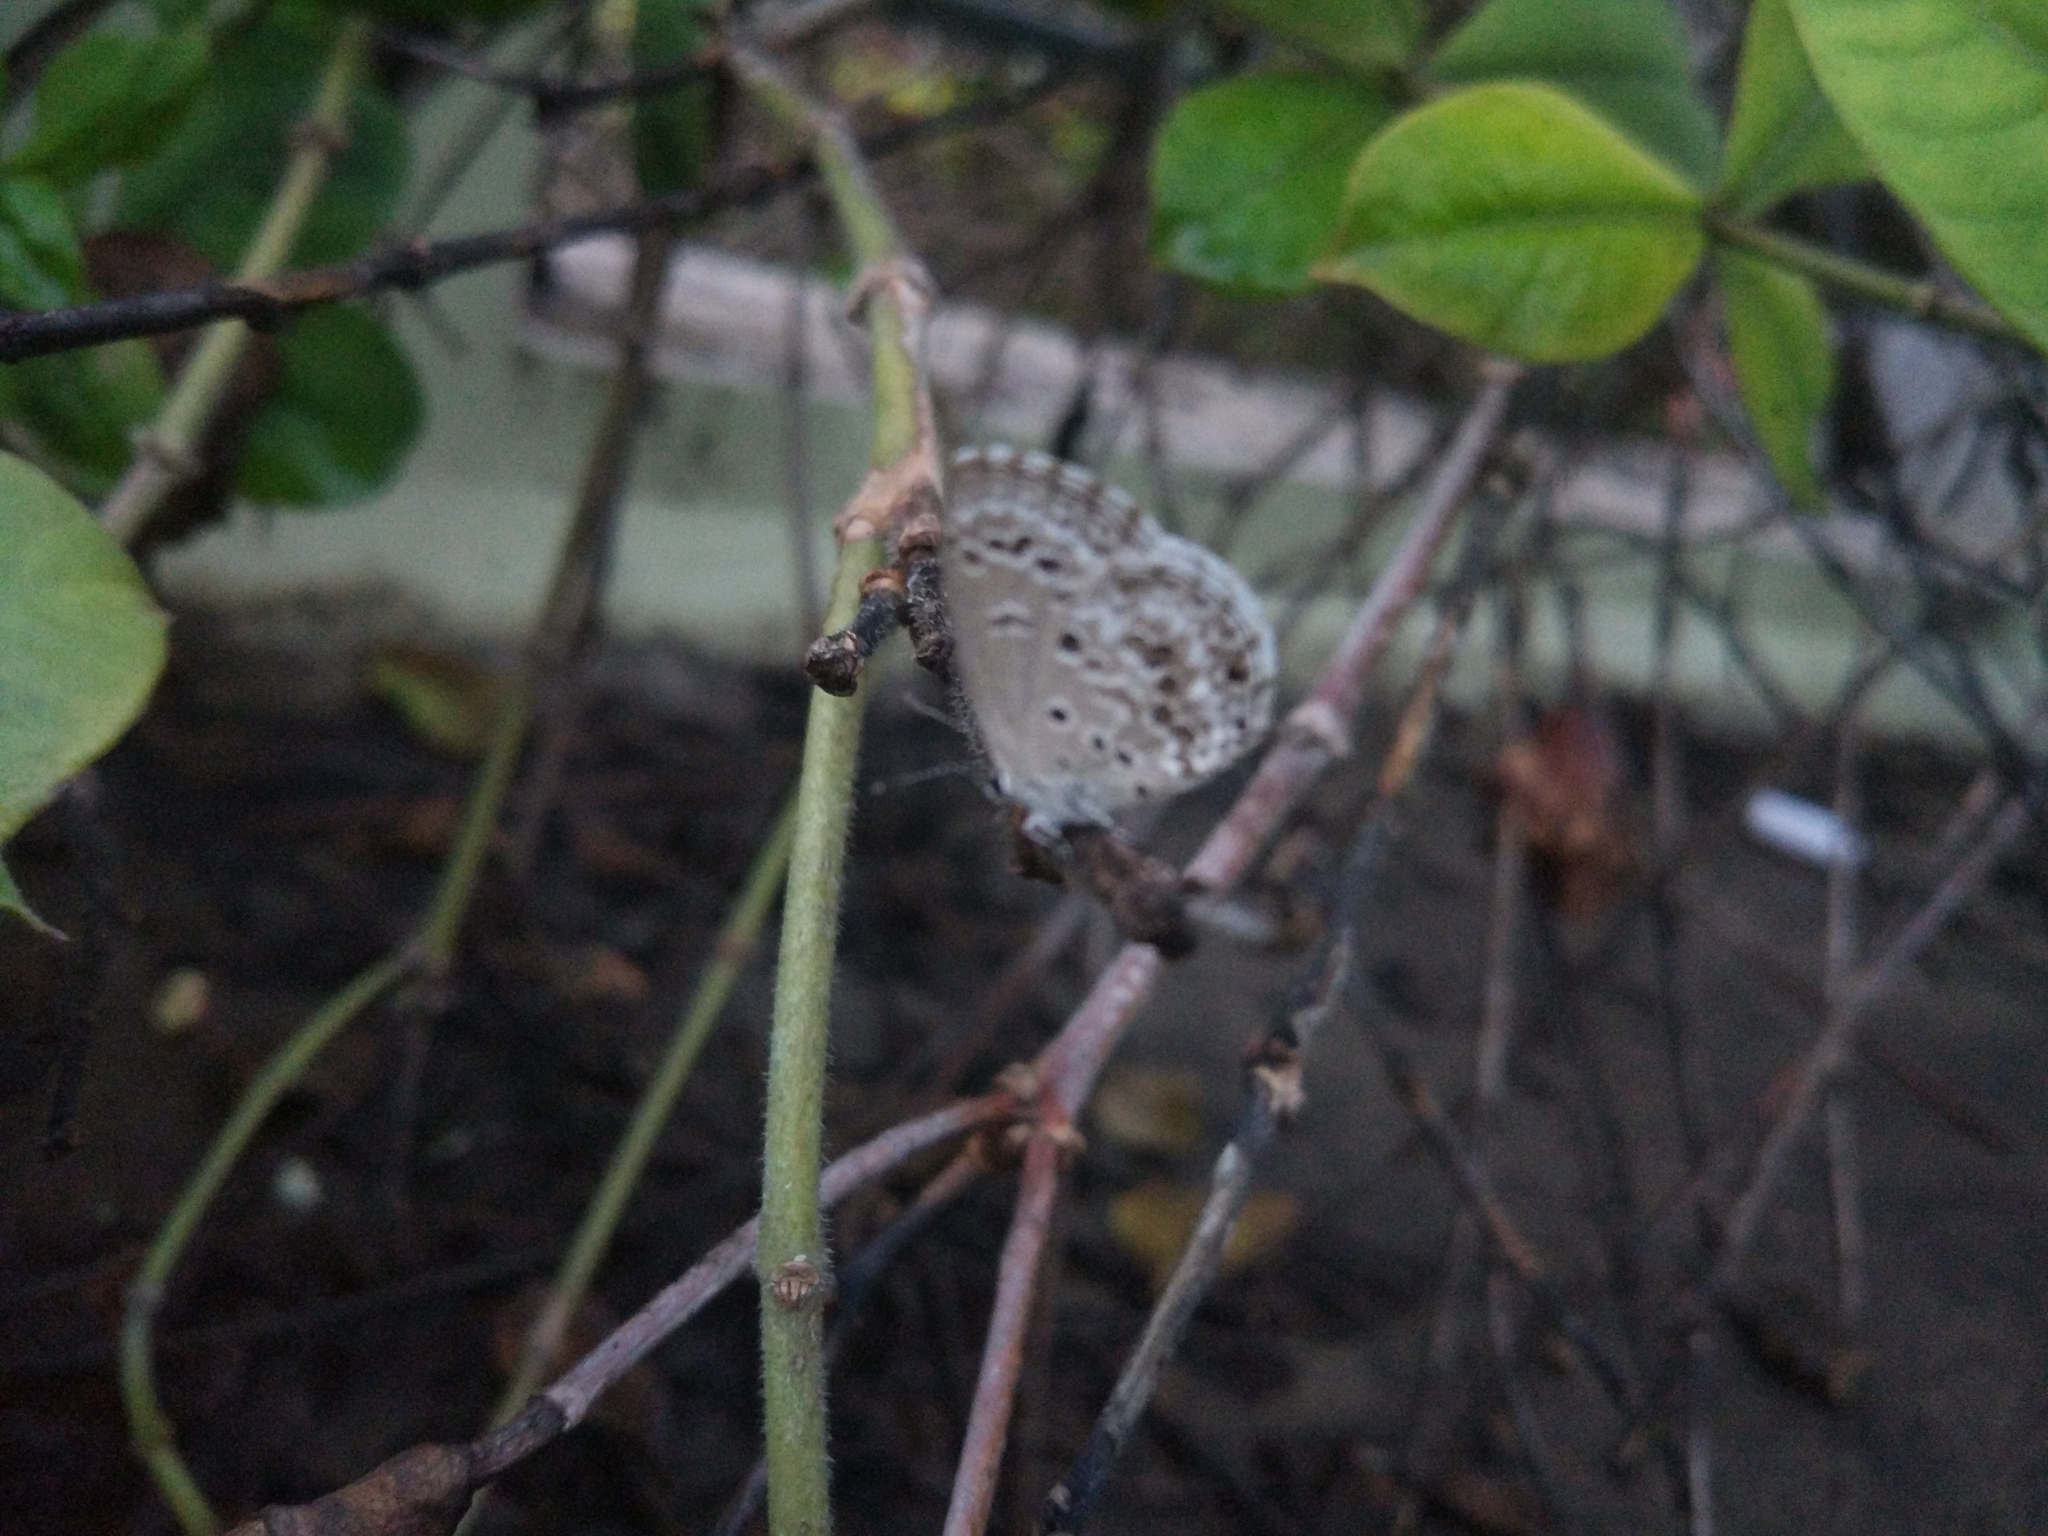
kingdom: Animalia
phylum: Arthropoda
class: Insecta
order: Lepidoptera
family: Lycaenidae
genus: Chilades
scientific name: Chilades laius
